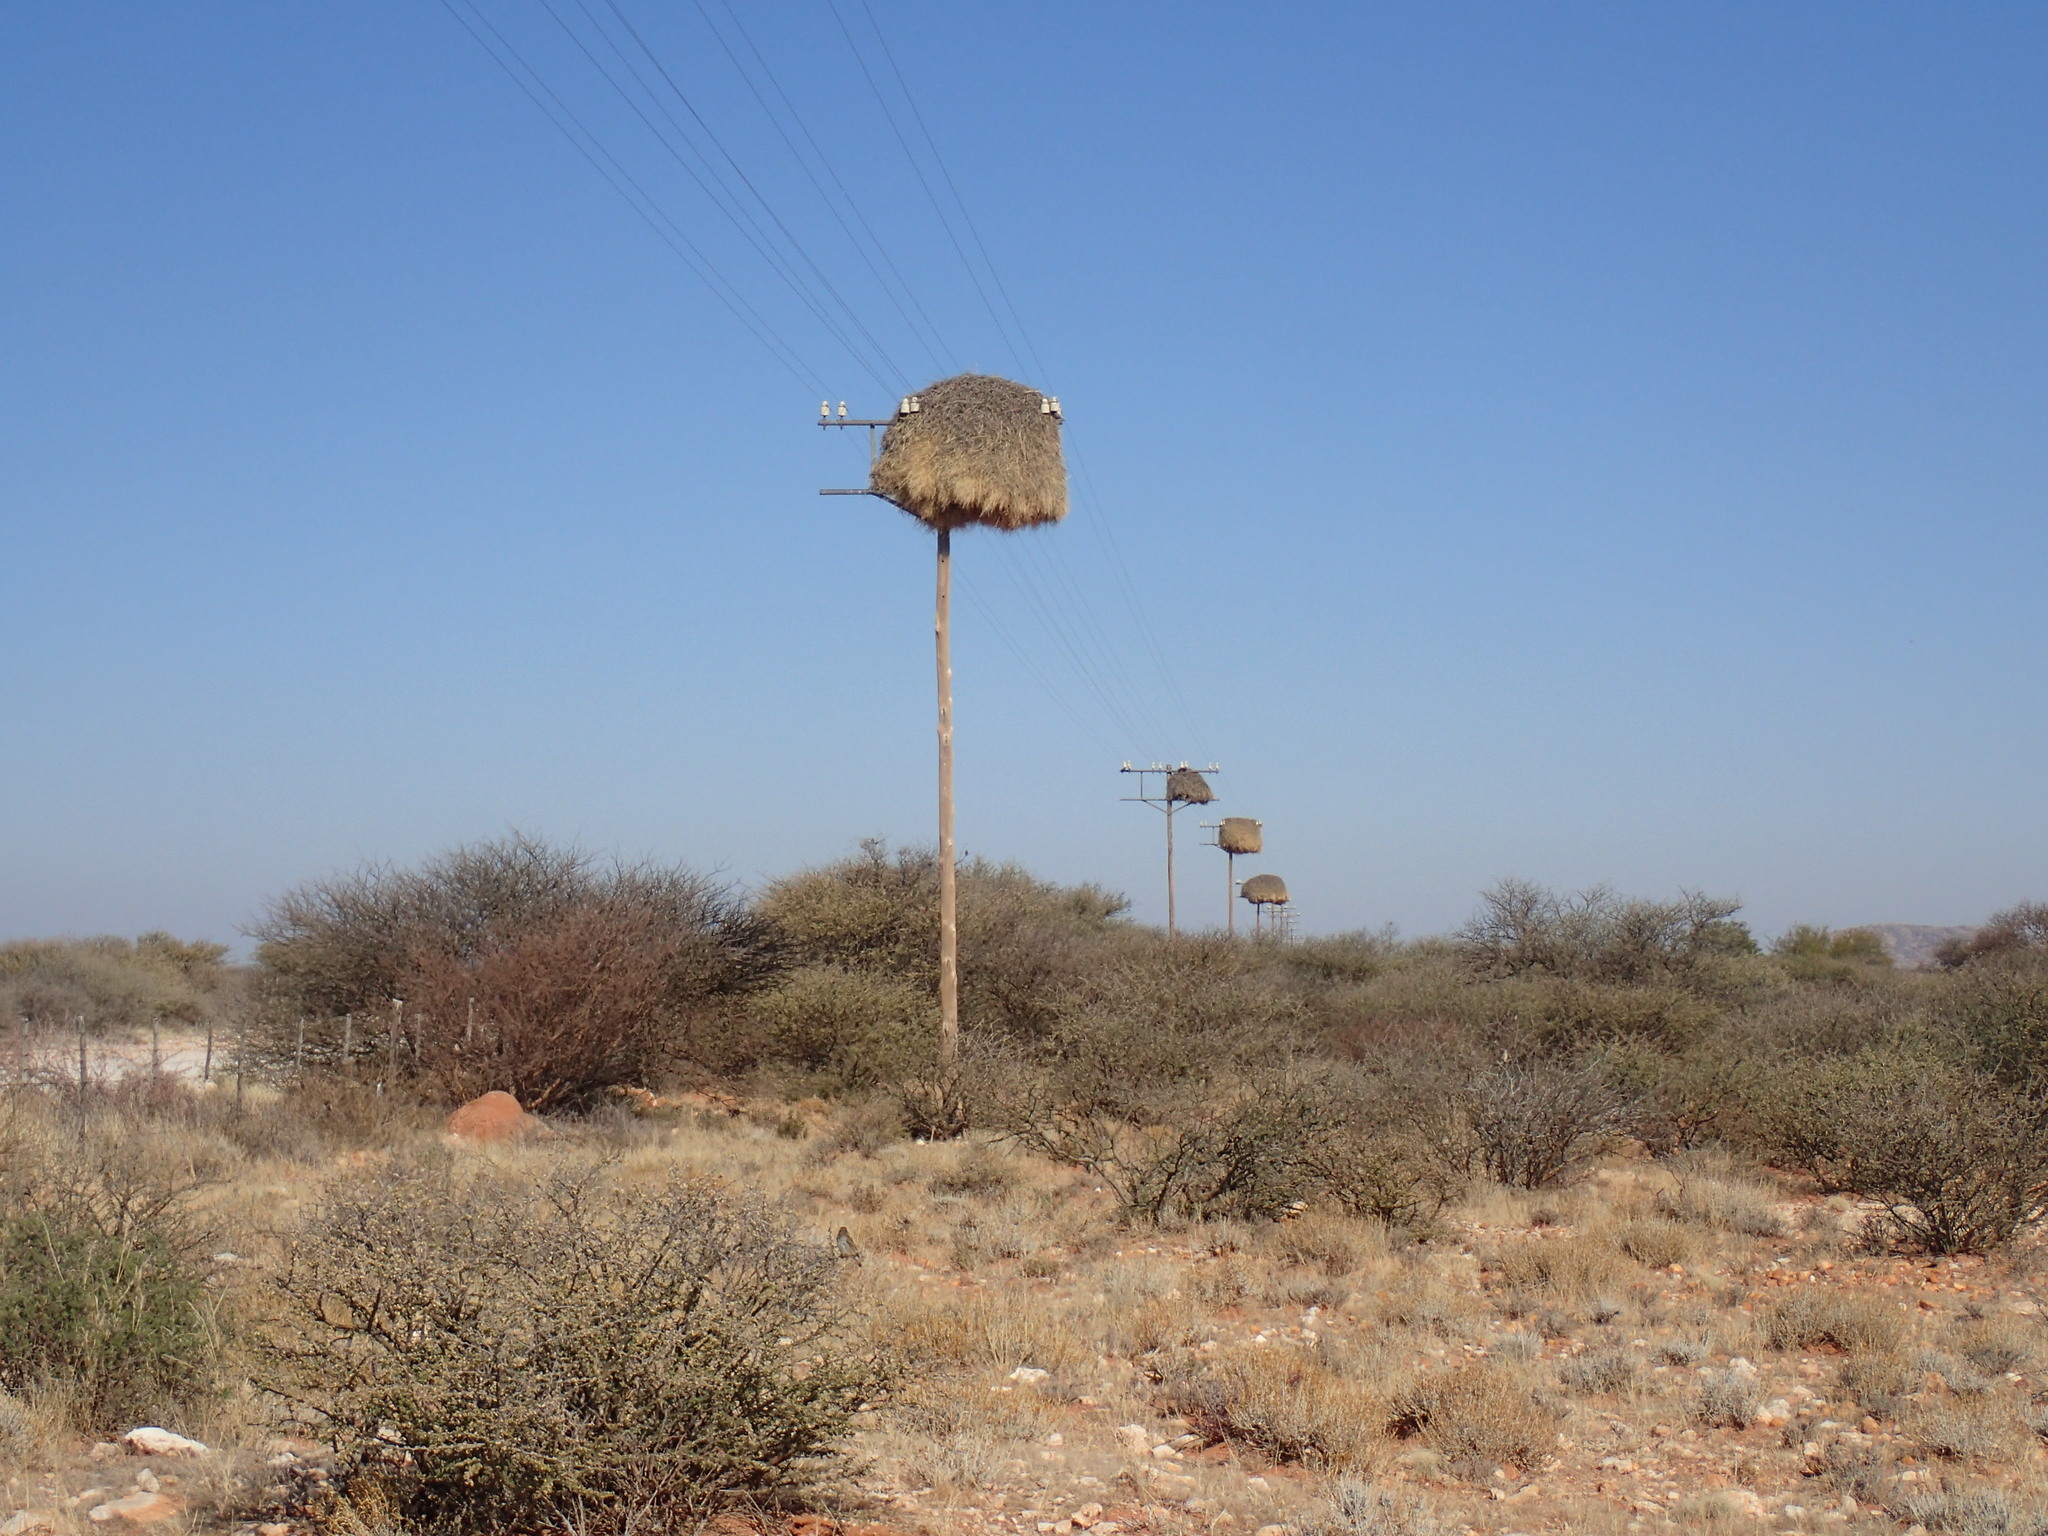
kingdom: Animalia
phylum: Chordata
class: Aves
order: Passeriformes
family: Passeridae
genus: Philetairus
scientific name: Philetairus socius
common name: Sociable weaver
